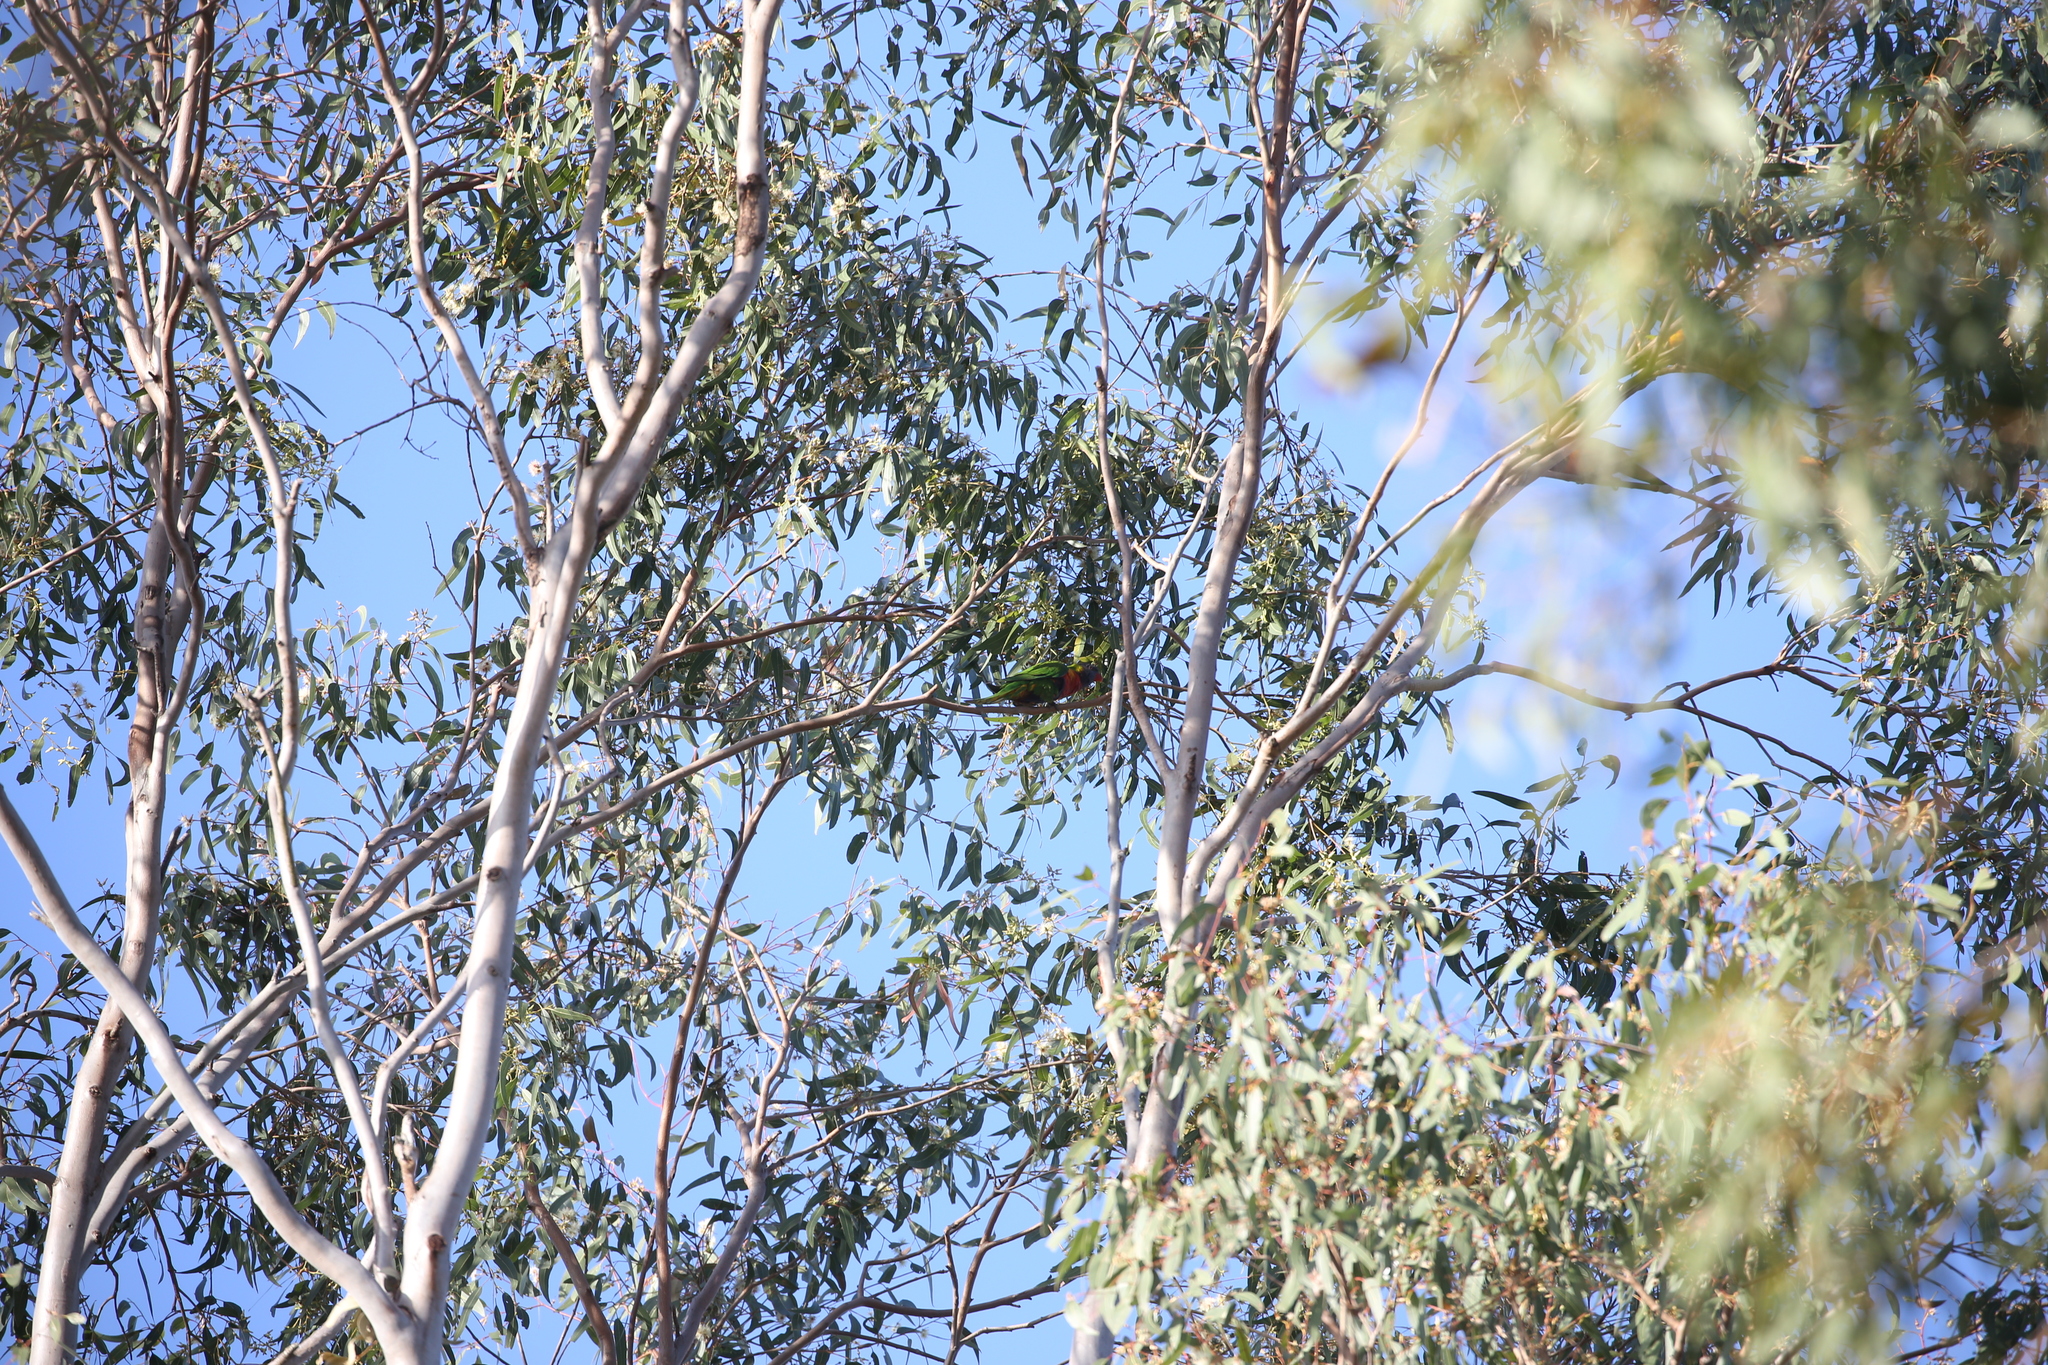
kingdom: Animalia
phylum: Chordata
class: Aves
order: Psittaciformes
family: Psittacidae
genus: Trichoglossus
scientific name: Trichoglossus haematodus
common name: Coconut lorikeet
